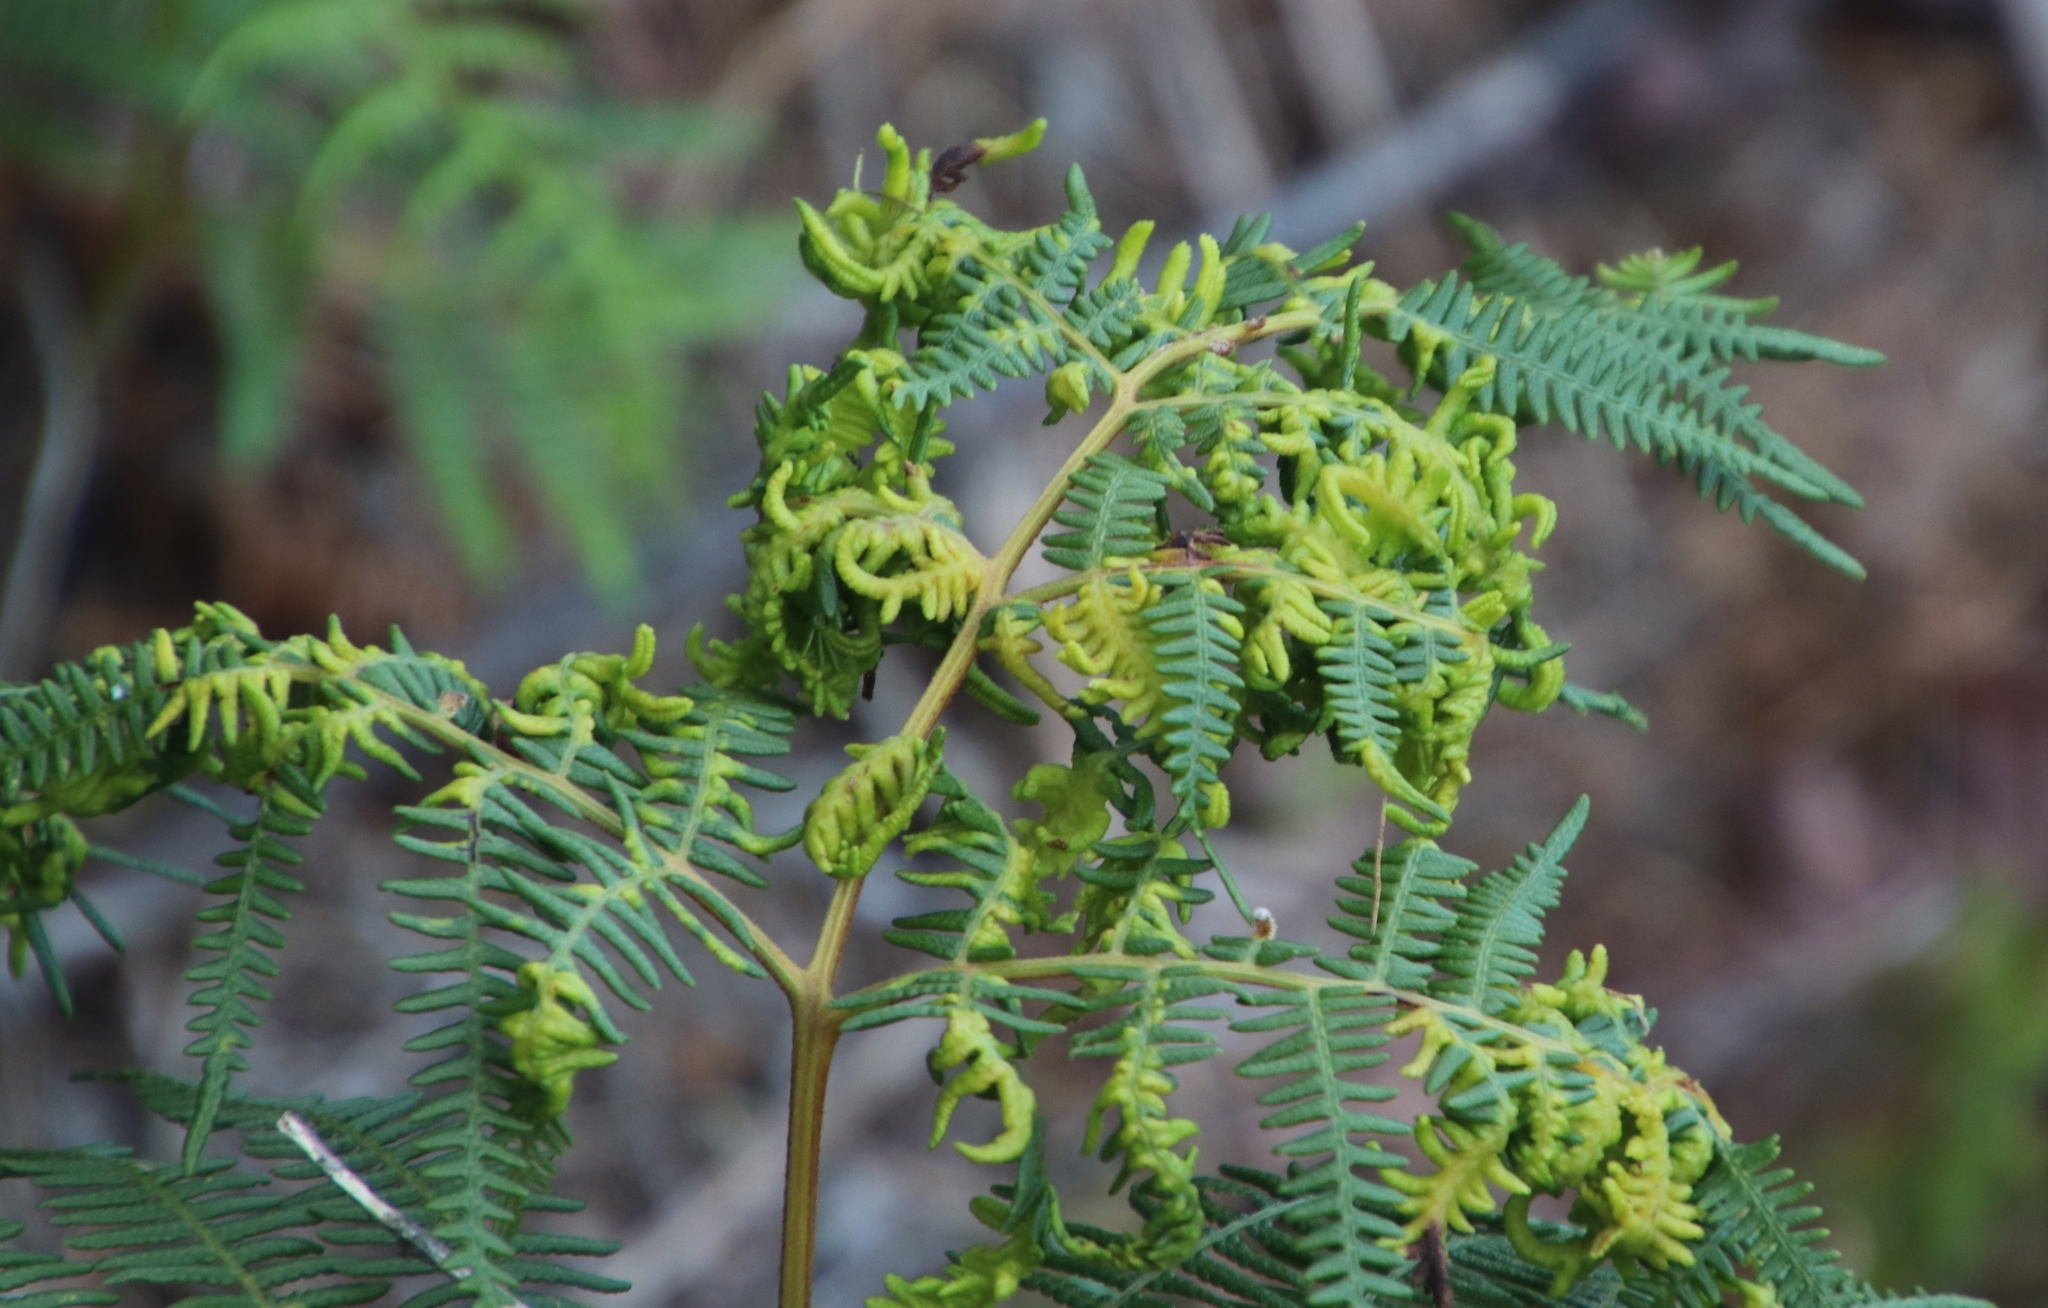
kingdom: Animalia
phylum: Arthropoda
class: Arachnida
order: Trombidiformes
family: Eriophyidae
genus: Eriophyes
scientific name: Eriophyes
